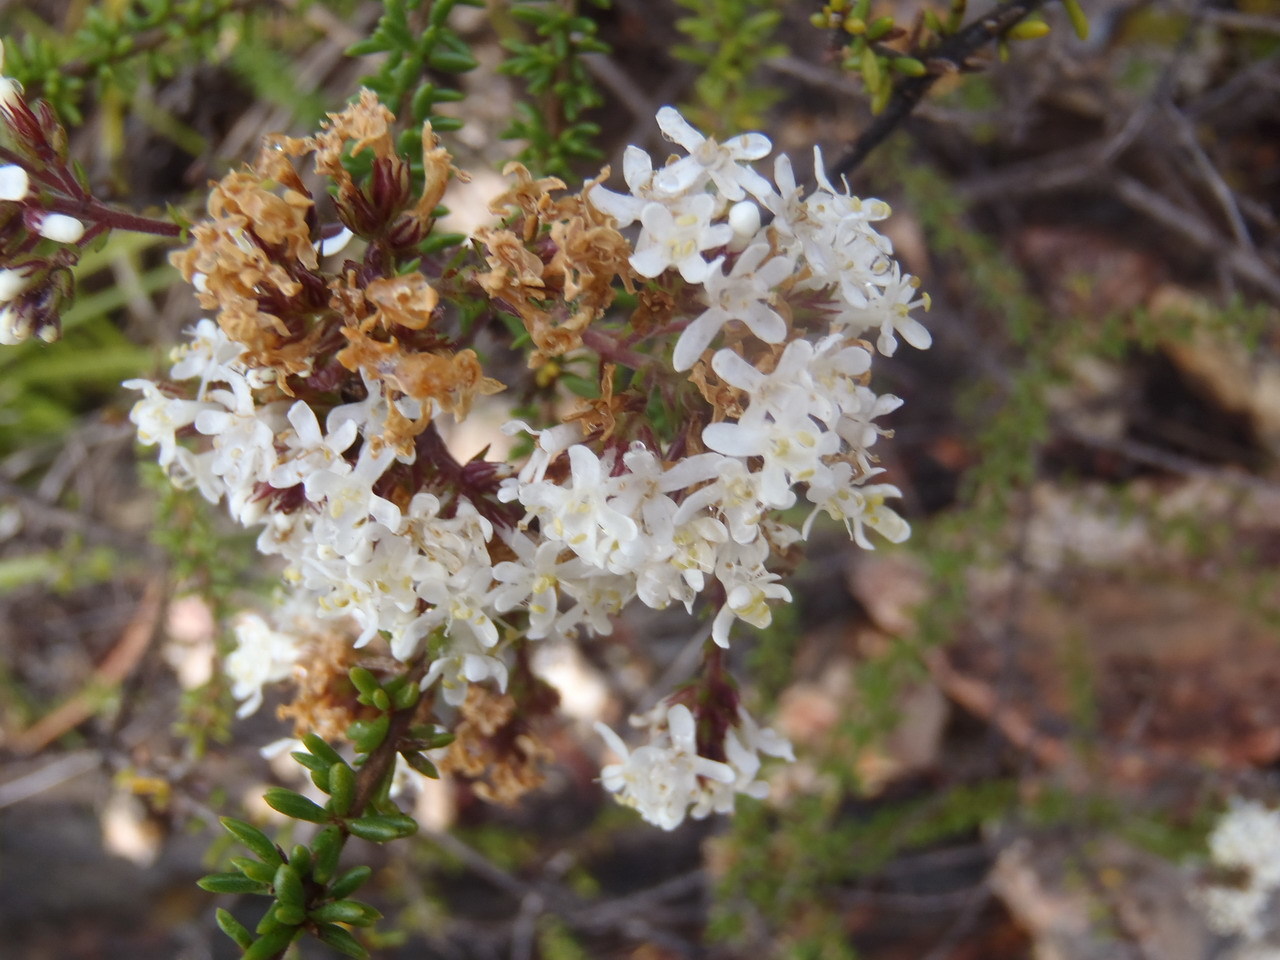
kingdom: Plantae
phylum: Tracheophyta
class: Magnoliopsida
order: Lamiales
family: Scrophulariaceae
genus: Selago
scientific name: Selago glomerata
